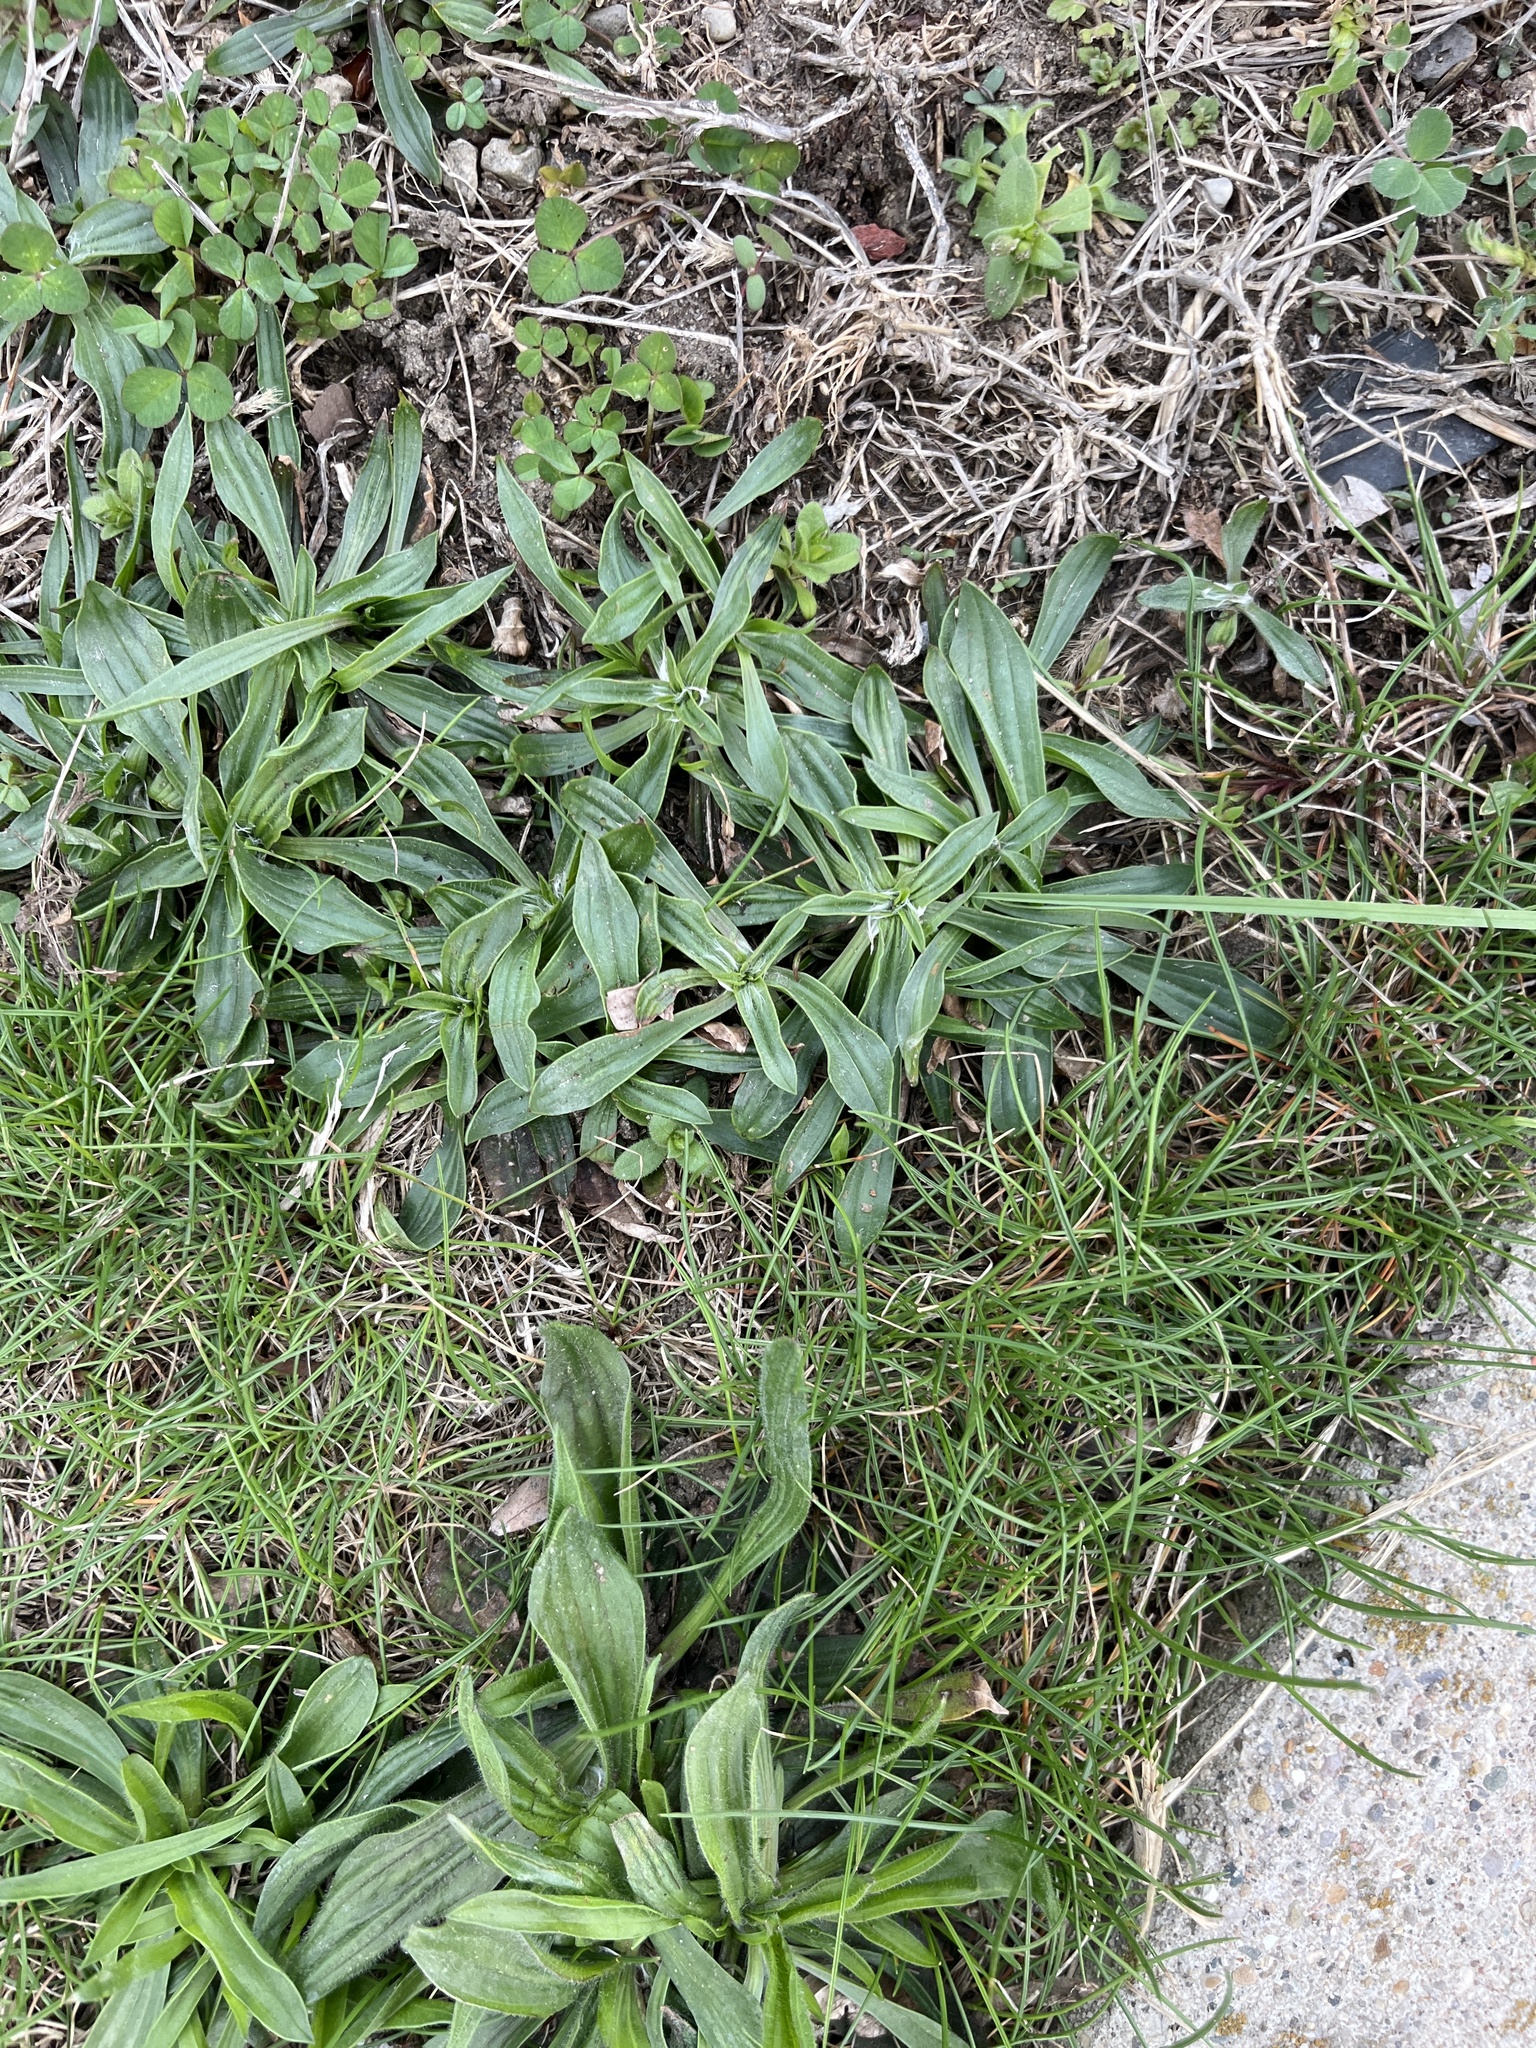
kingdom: Plantae
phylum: Tracheophyta
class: Magnoliopsida
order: Lamiales
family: Plantaginaceae
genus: Plantago
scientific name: Plantago lanceolata
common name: Ribwort plantain
